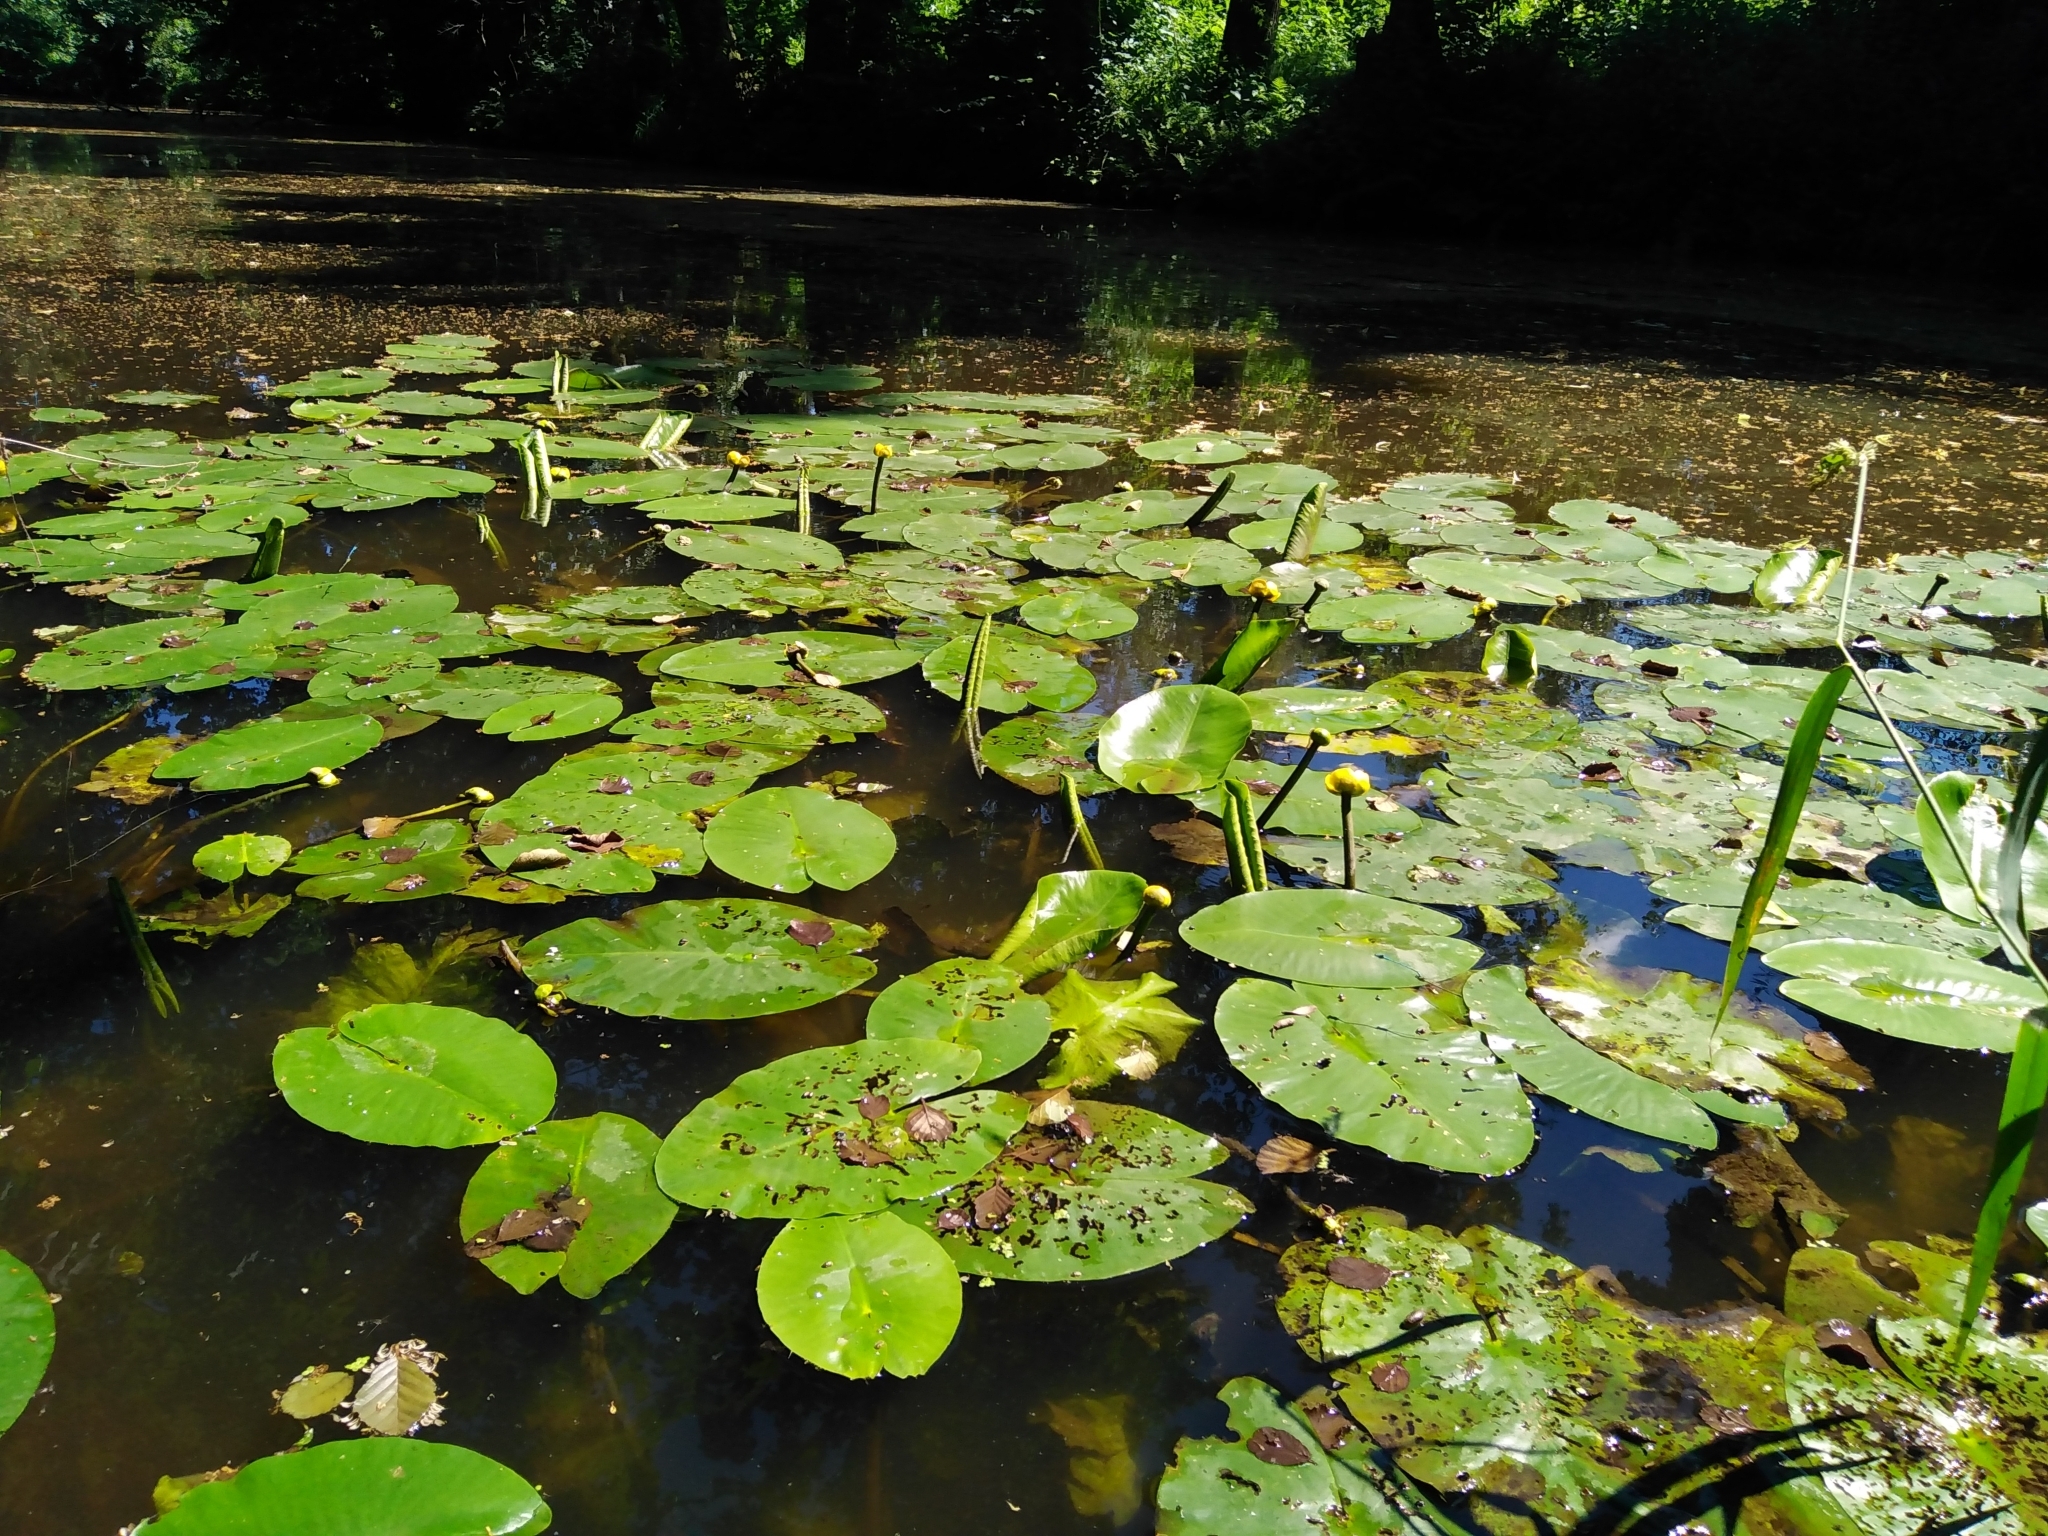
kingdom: Plantae
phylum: Tracheophyta
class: Magnoliopsida
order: Nymphaeales
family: Nymphaeaceae
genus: Nuphar
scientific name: Nuphar lutea
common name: Yellow water-lily
